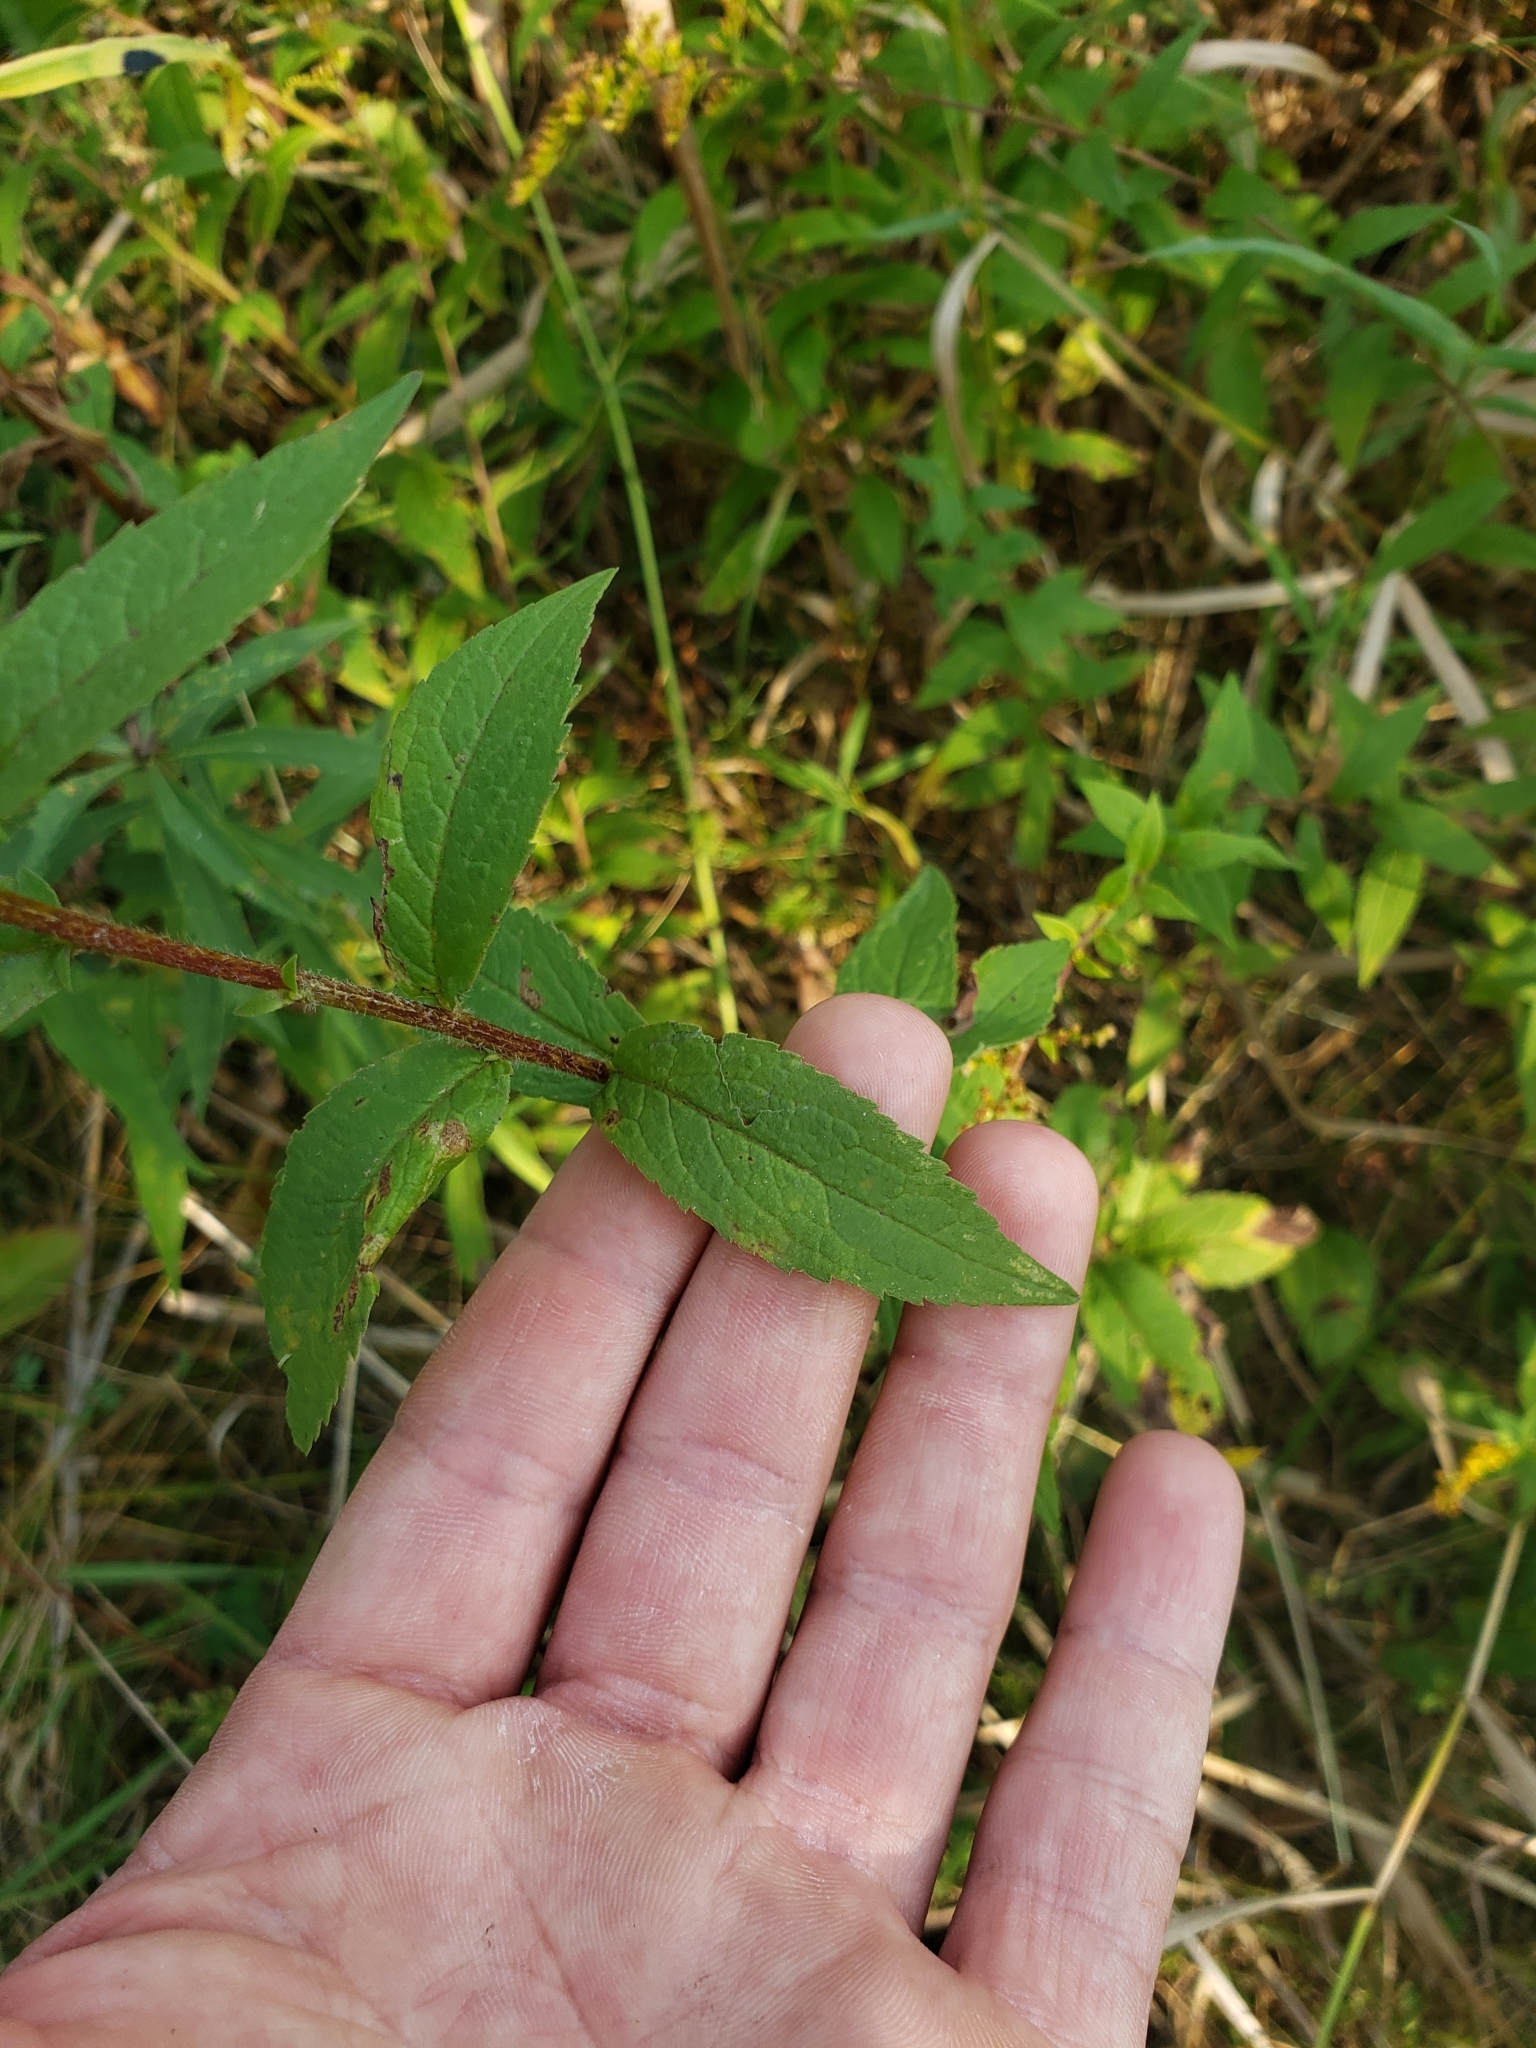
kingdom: Plantae
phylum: Tracheophyta
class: Magnoliopsida
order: Asterales
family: Asteraceae
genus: Solidago
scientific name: Solidago rugosa
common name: Rough-stemmed goldenrod
